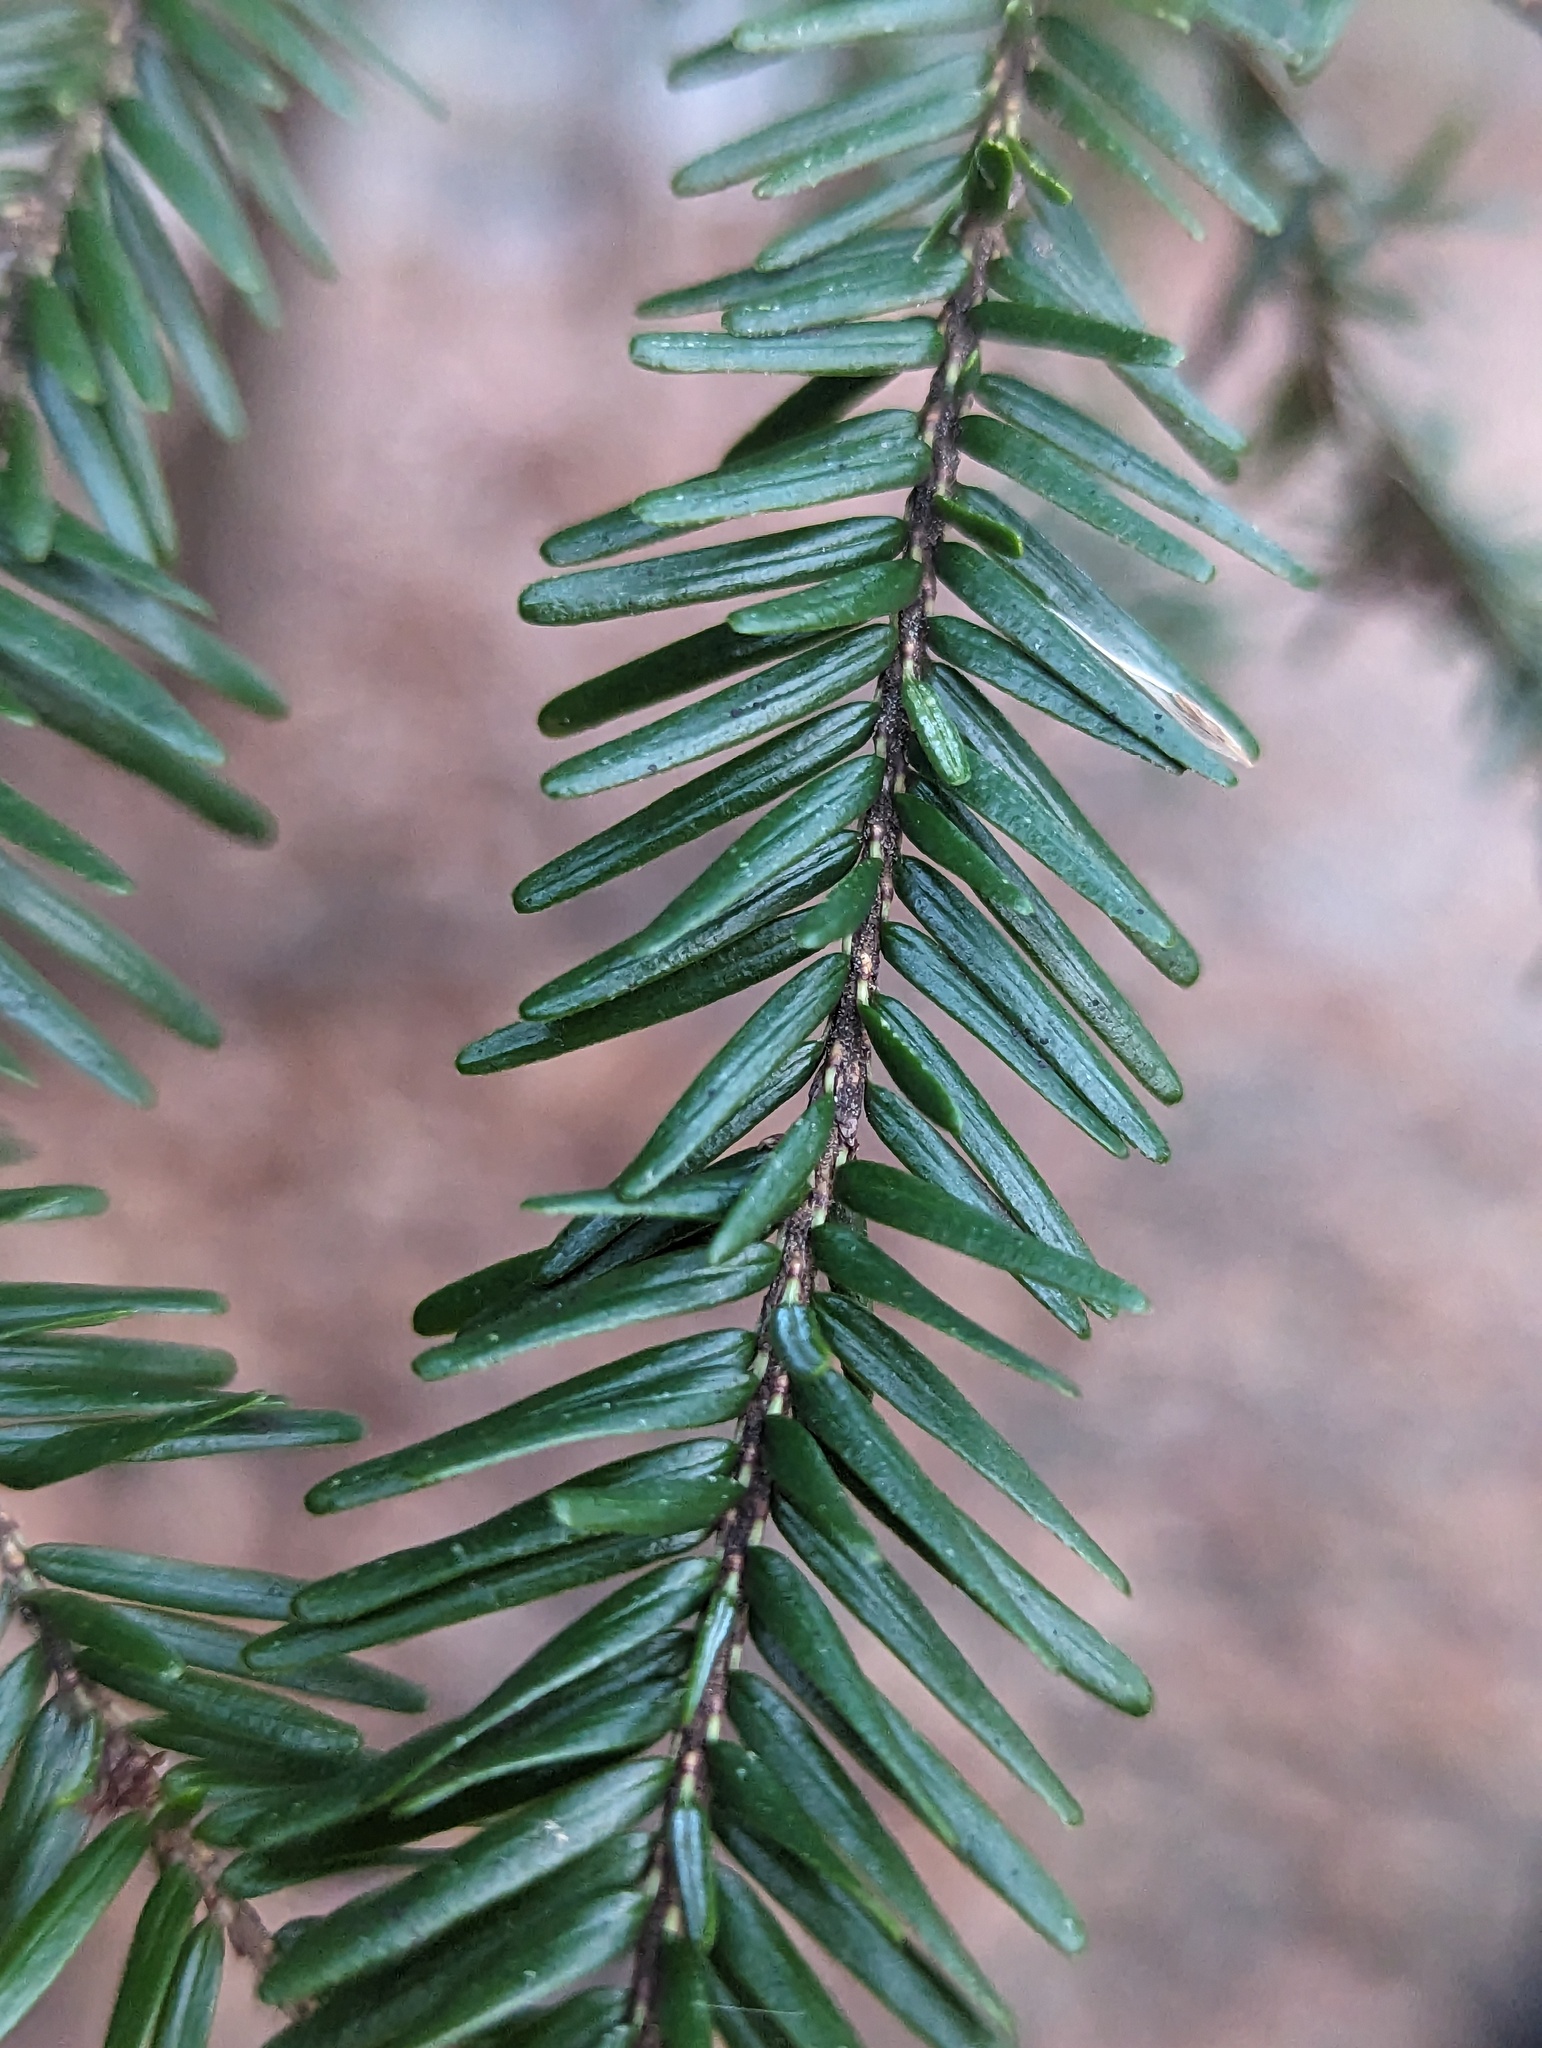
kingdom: Plantae
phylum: Tracheophyta
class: Pinopsida
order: Pinales
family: Pinaceae
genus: Tsuga
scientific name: Tsuga canadensis
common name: Eastern hemlock
